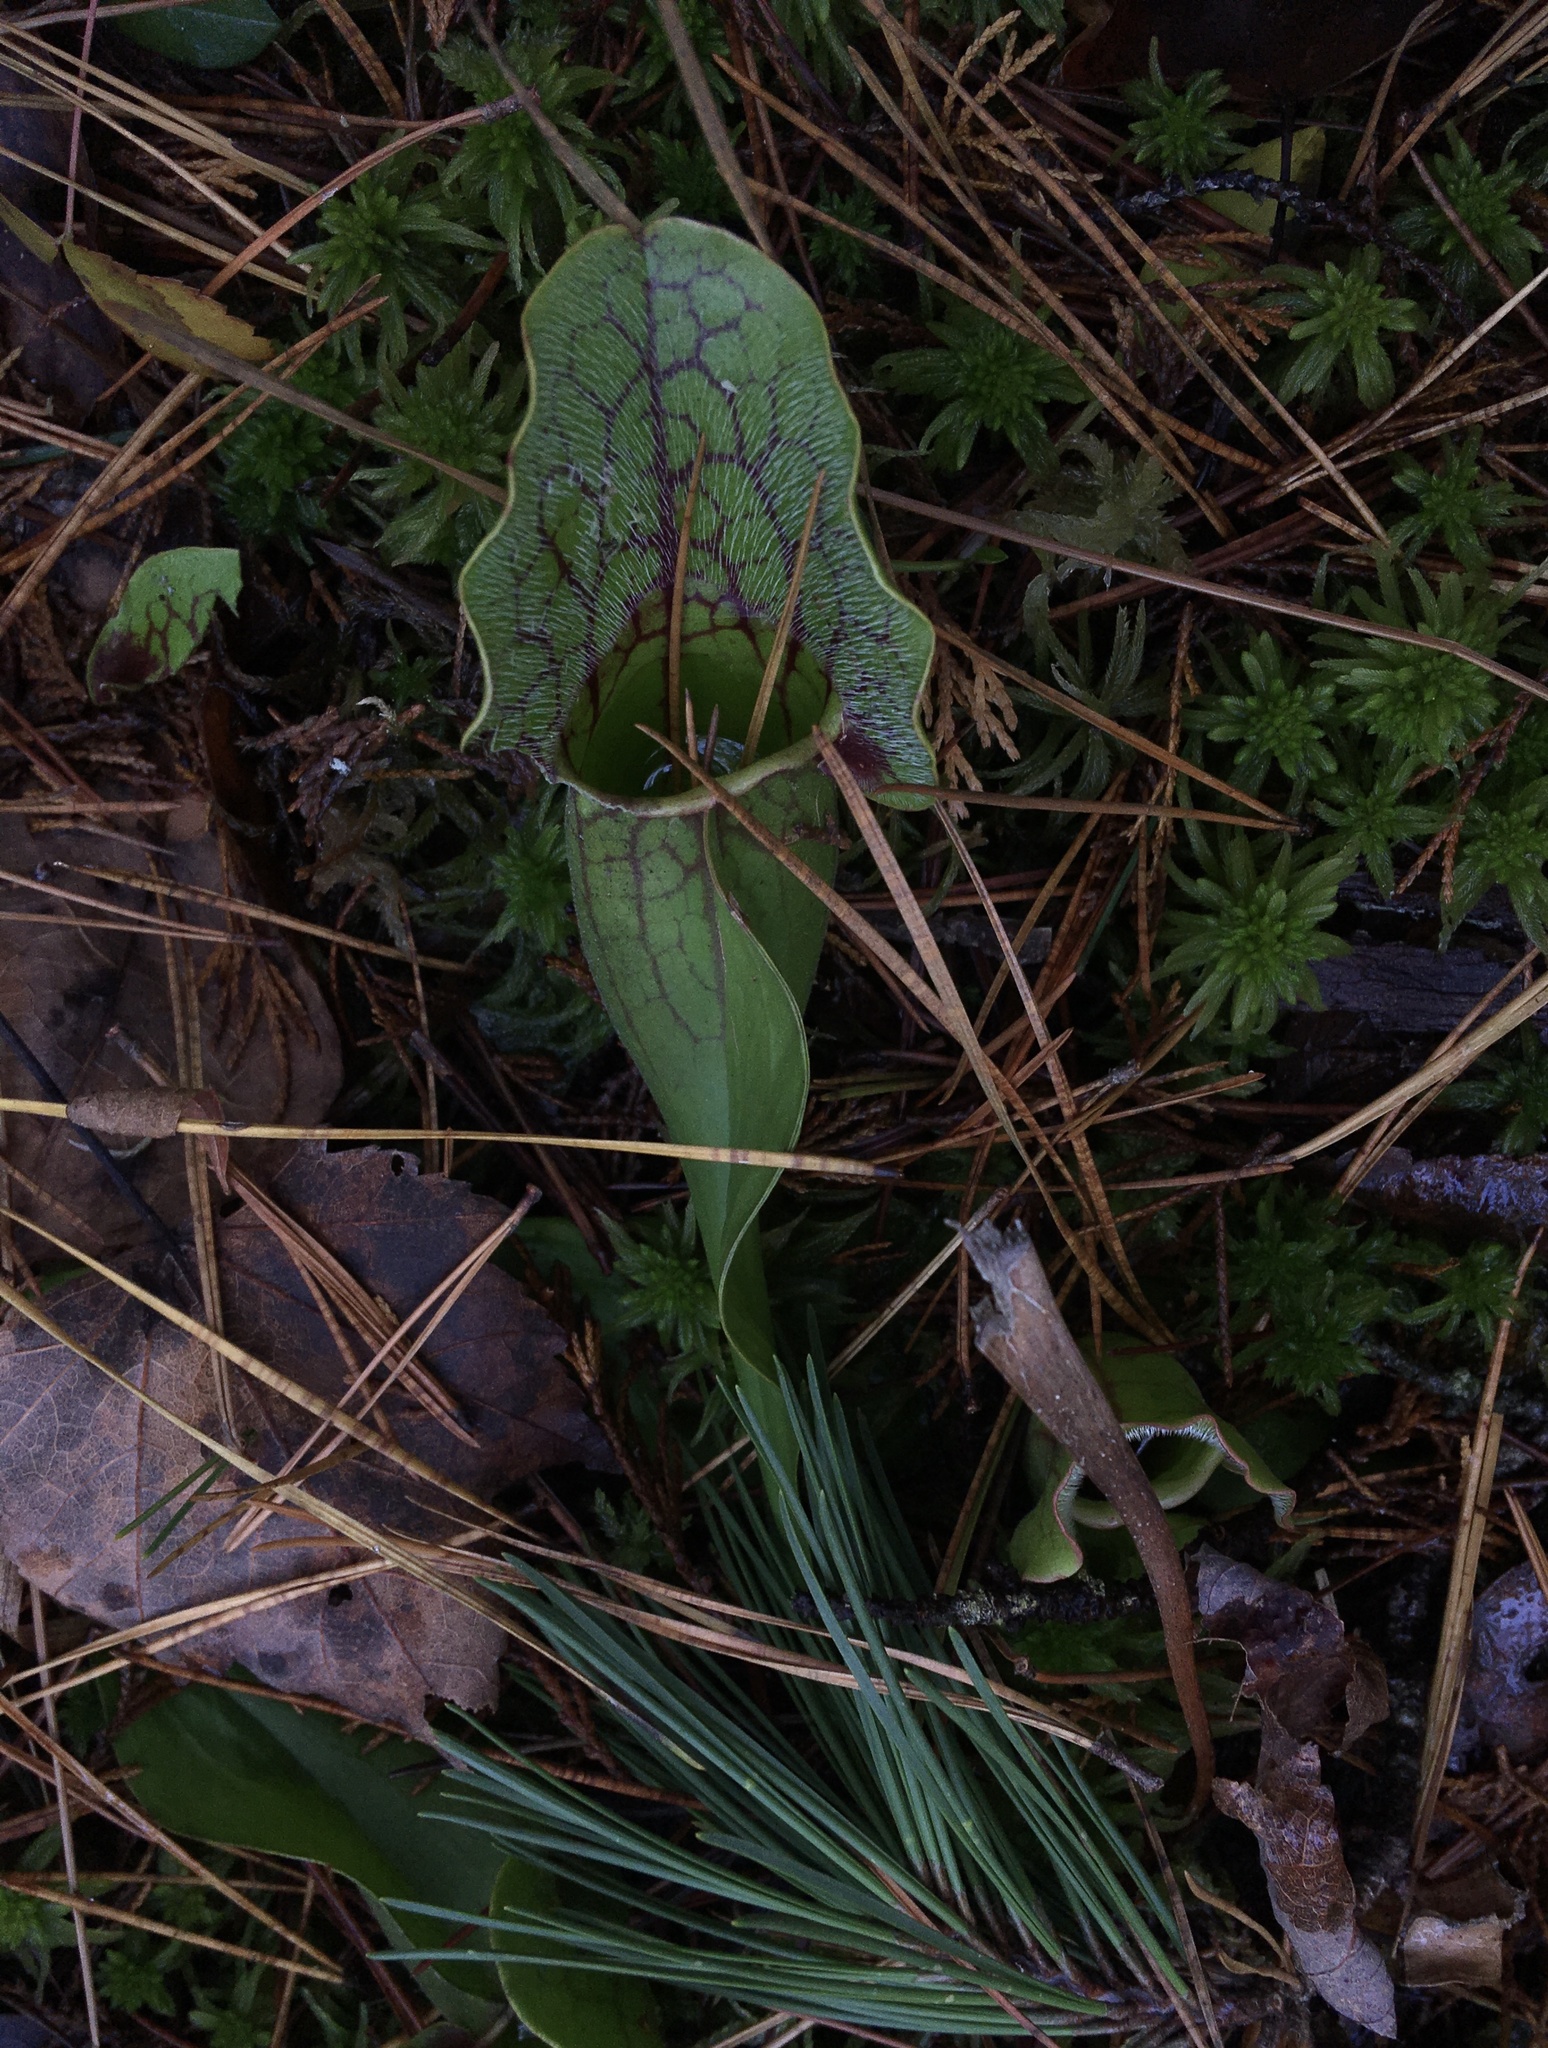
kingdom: Plantae
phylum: Tracheophyta
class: Magnoliopsida
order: Ericales
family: Sarraceniaceae
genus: Sarracenia
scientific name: Sarracenia purpurea
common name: Pitcherplant
